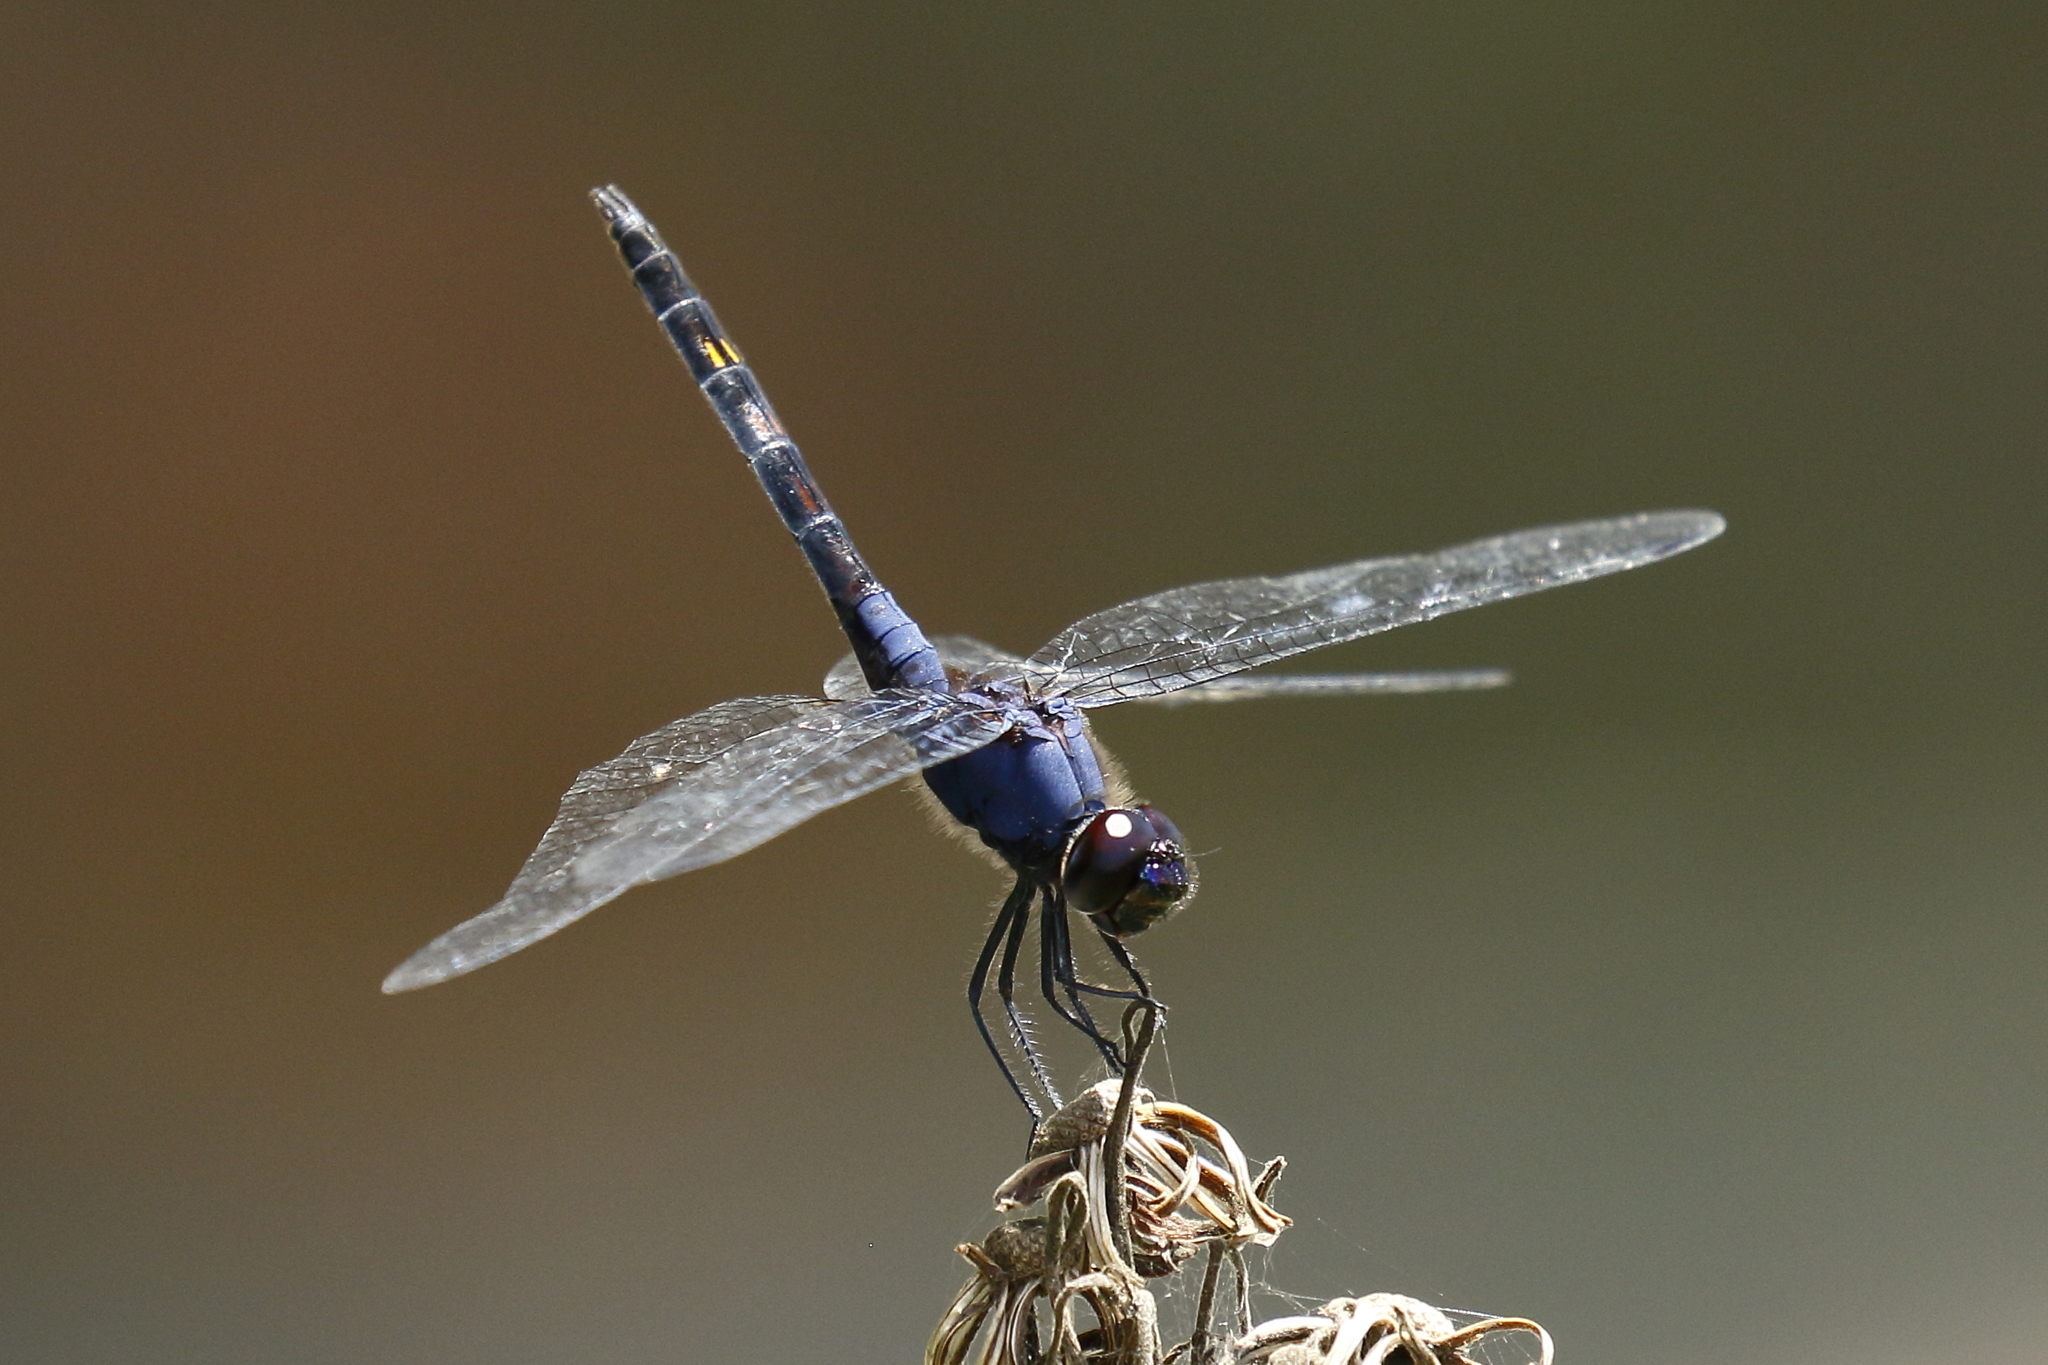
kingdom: Animalia
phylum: Arthropoda
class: Insecta
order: Odonata
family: Libellulidae
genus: Trithemis
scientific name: Trithemis festiva
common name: Indigo dropwing
